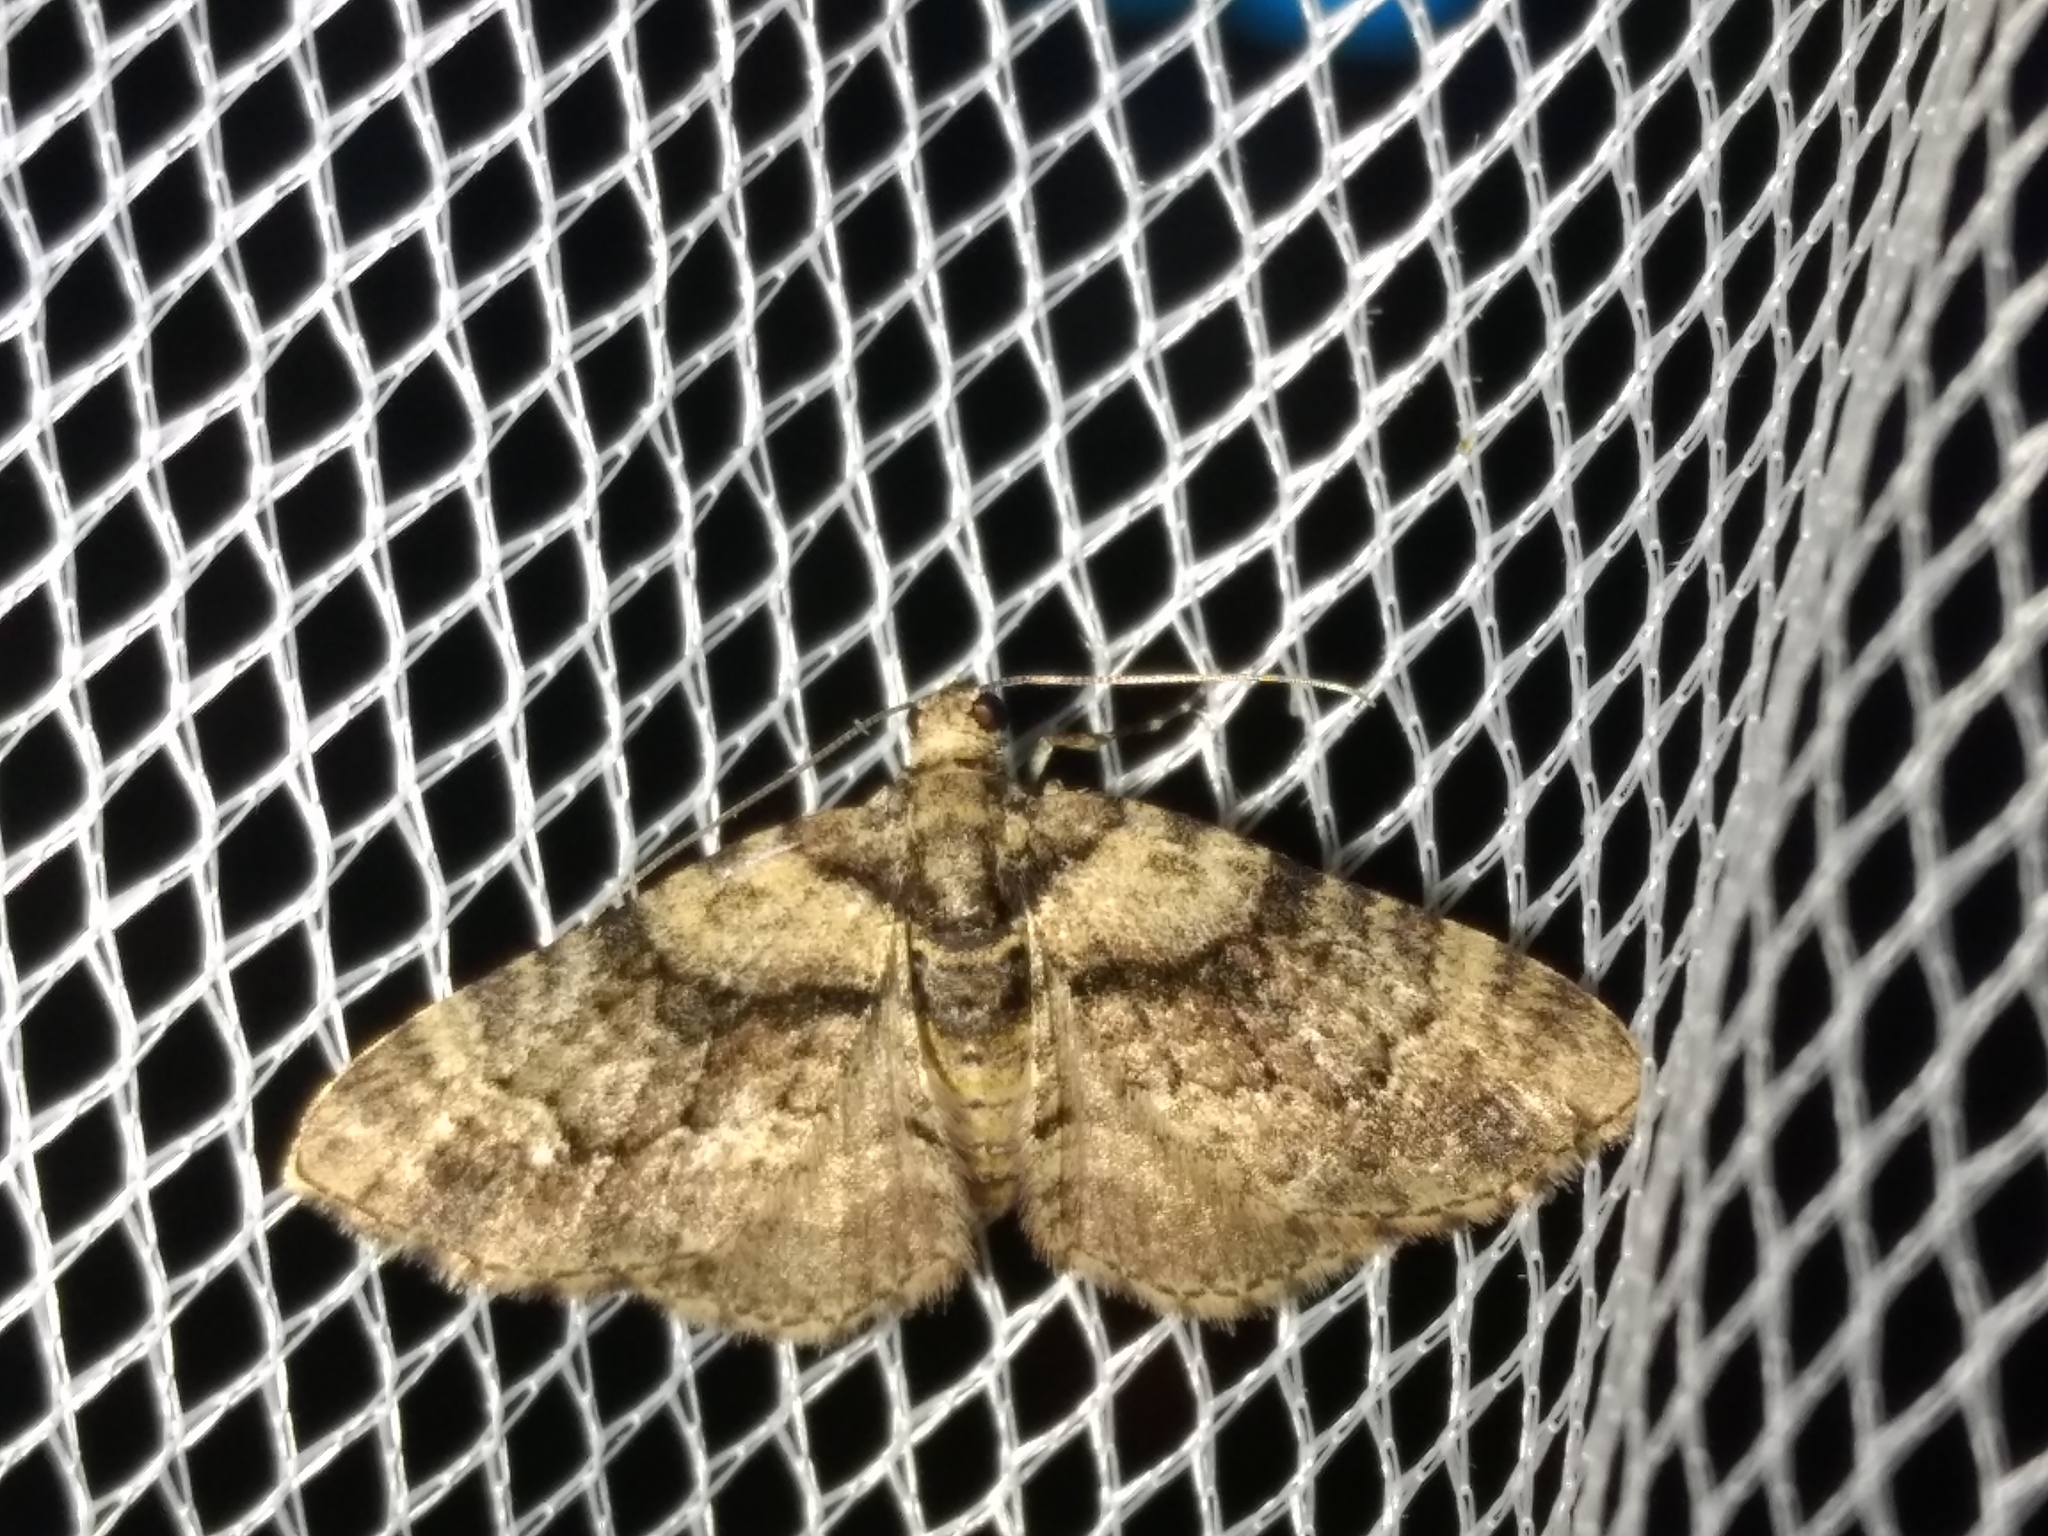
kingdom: Animalia
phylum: Arthropoda
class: Insecta
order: Lepidoptera
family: Geometridae
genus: Epyaxa
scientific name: Epyaxa sodaliata
